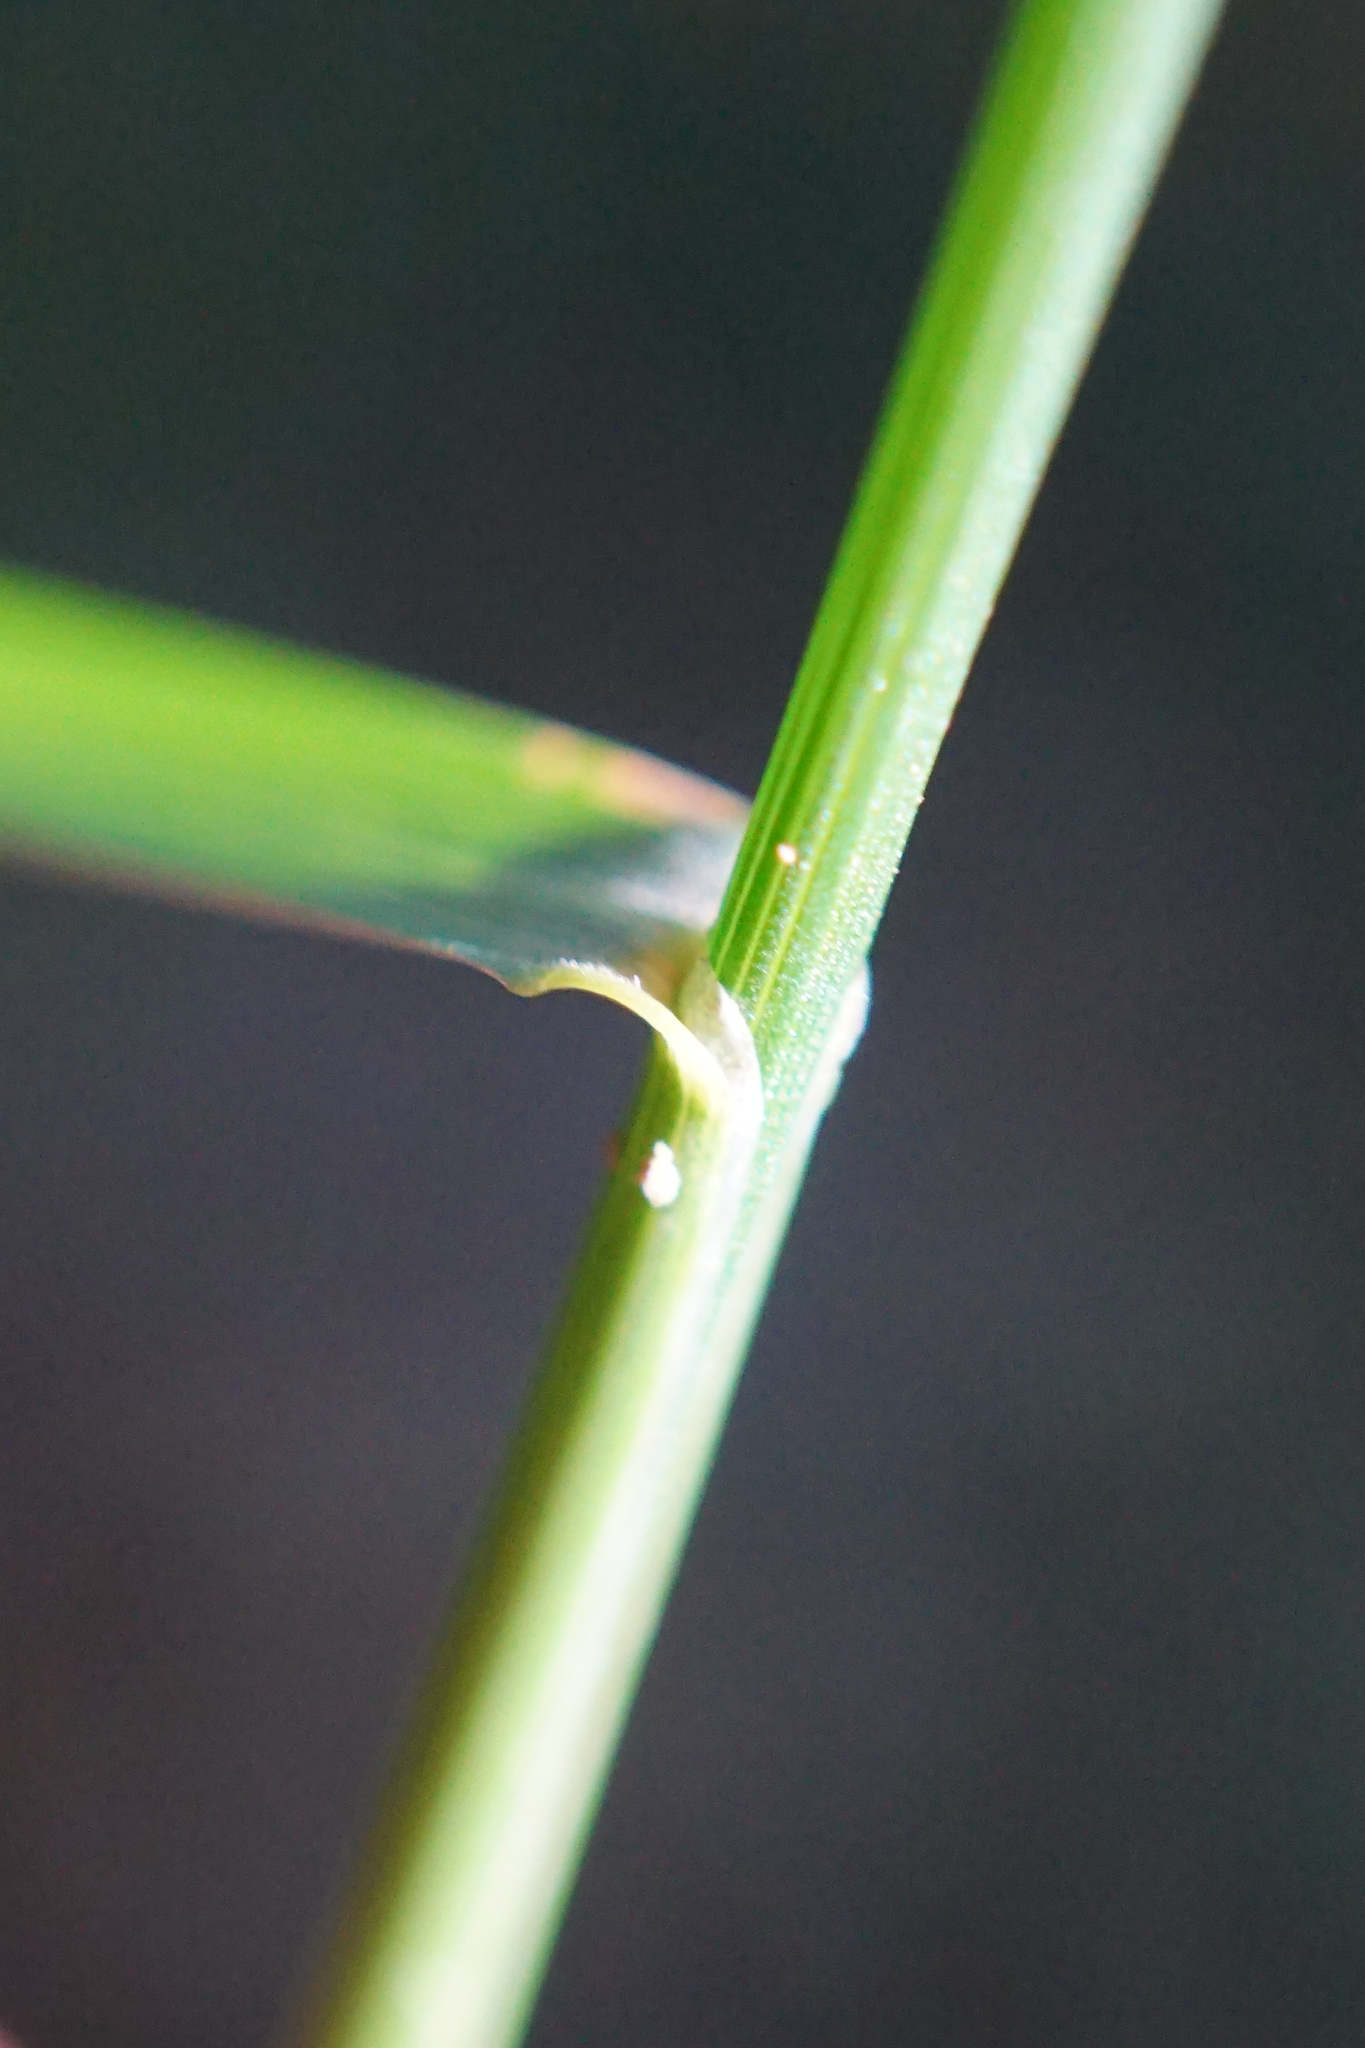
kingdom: Plantae
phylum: Tracheophyta
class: Liliopsida
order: Poales
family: Poaceae
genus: Poa
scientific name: Poa nemoralis
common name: Wood bluegrass
